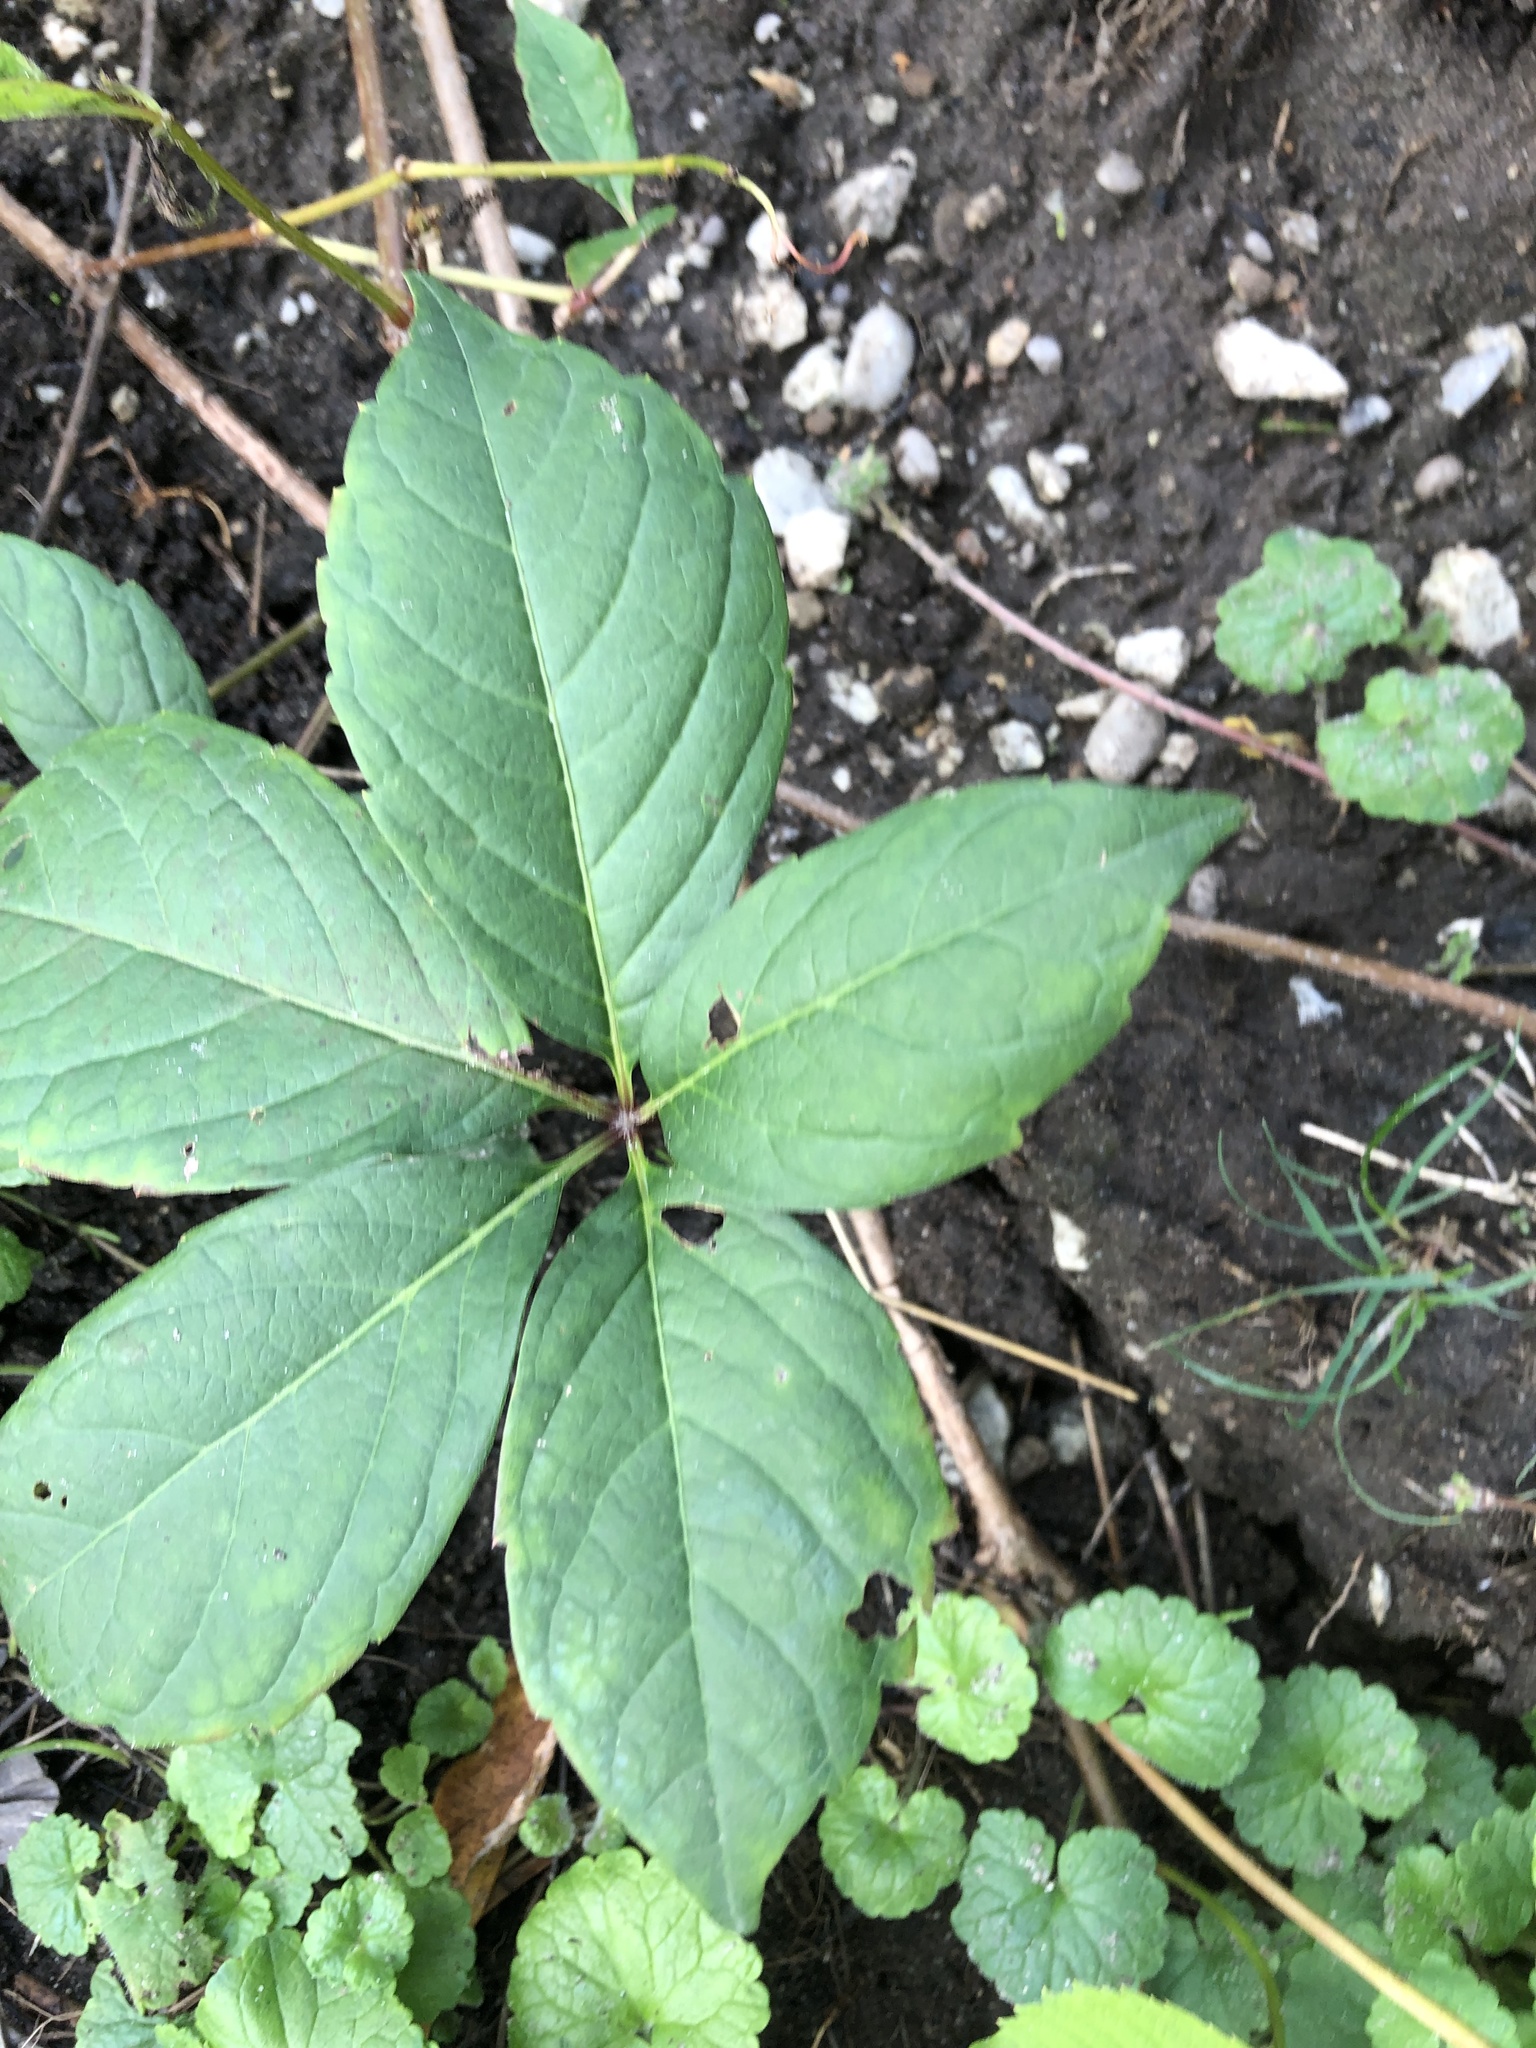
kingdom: Plantae
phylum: Tracheophyta
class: Magnoliopsida
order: Vitales
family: Vitaceae
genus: Parthenocissus
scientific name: Parthenocissus quinquefolia
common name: Virginia-creeper
